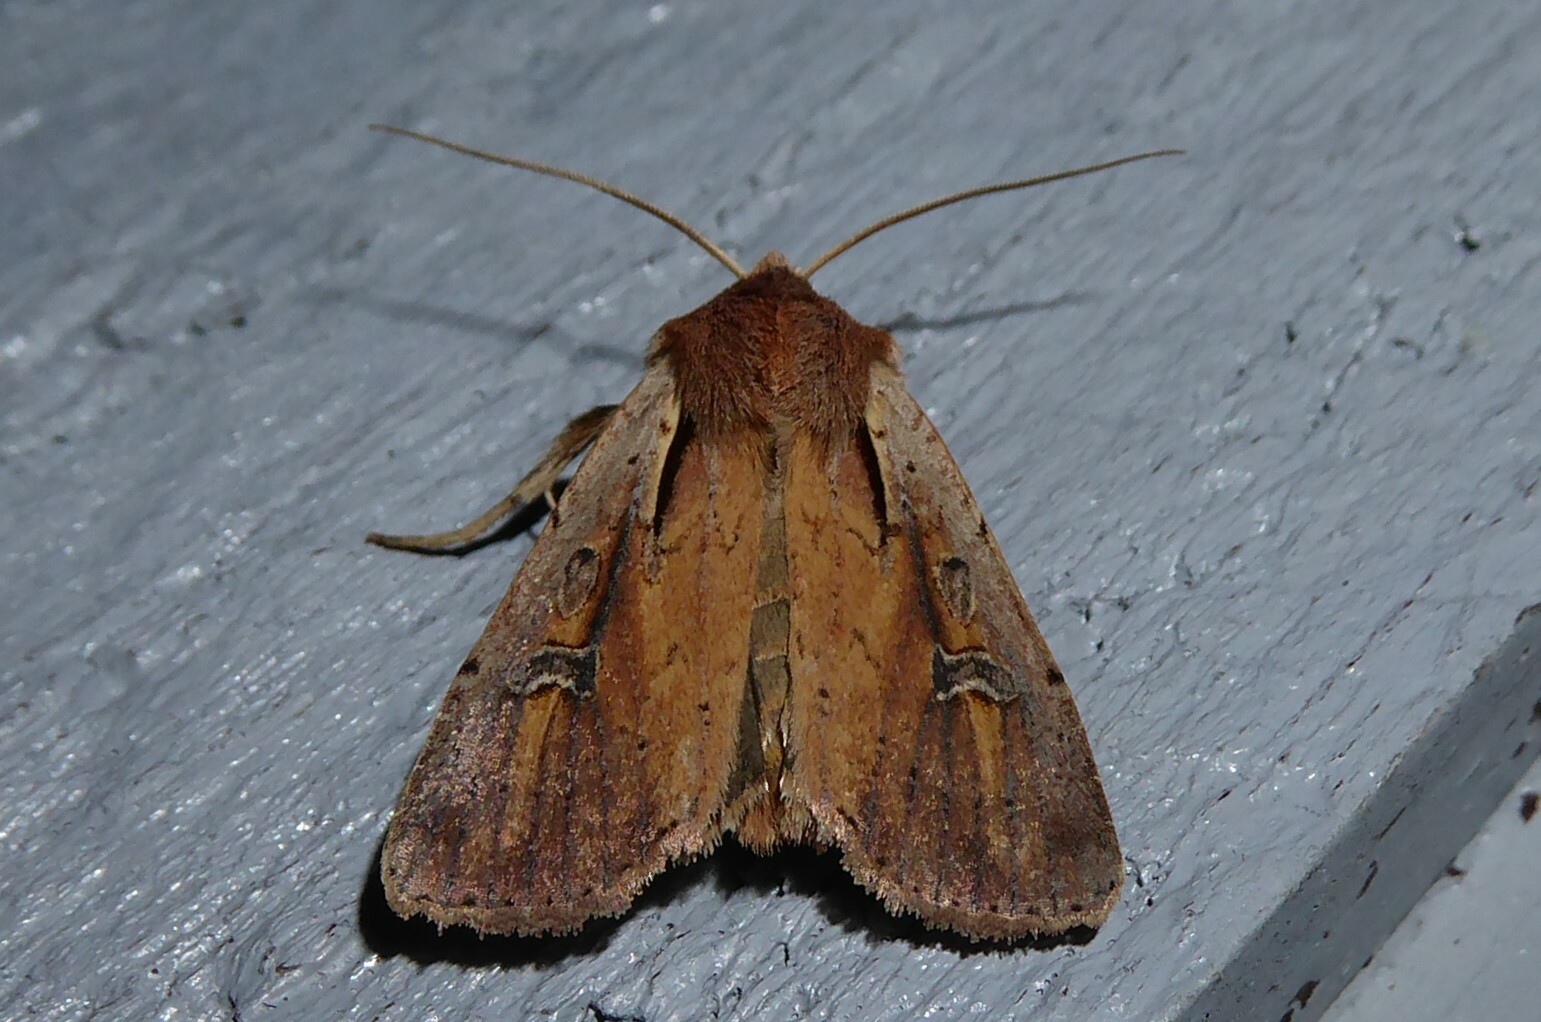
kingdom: Animalia
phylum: Arthropoda
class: Insecta
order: Lepidoptera
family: Noctuidae
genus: Ichneutica
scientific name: Ichneutica atristriga
